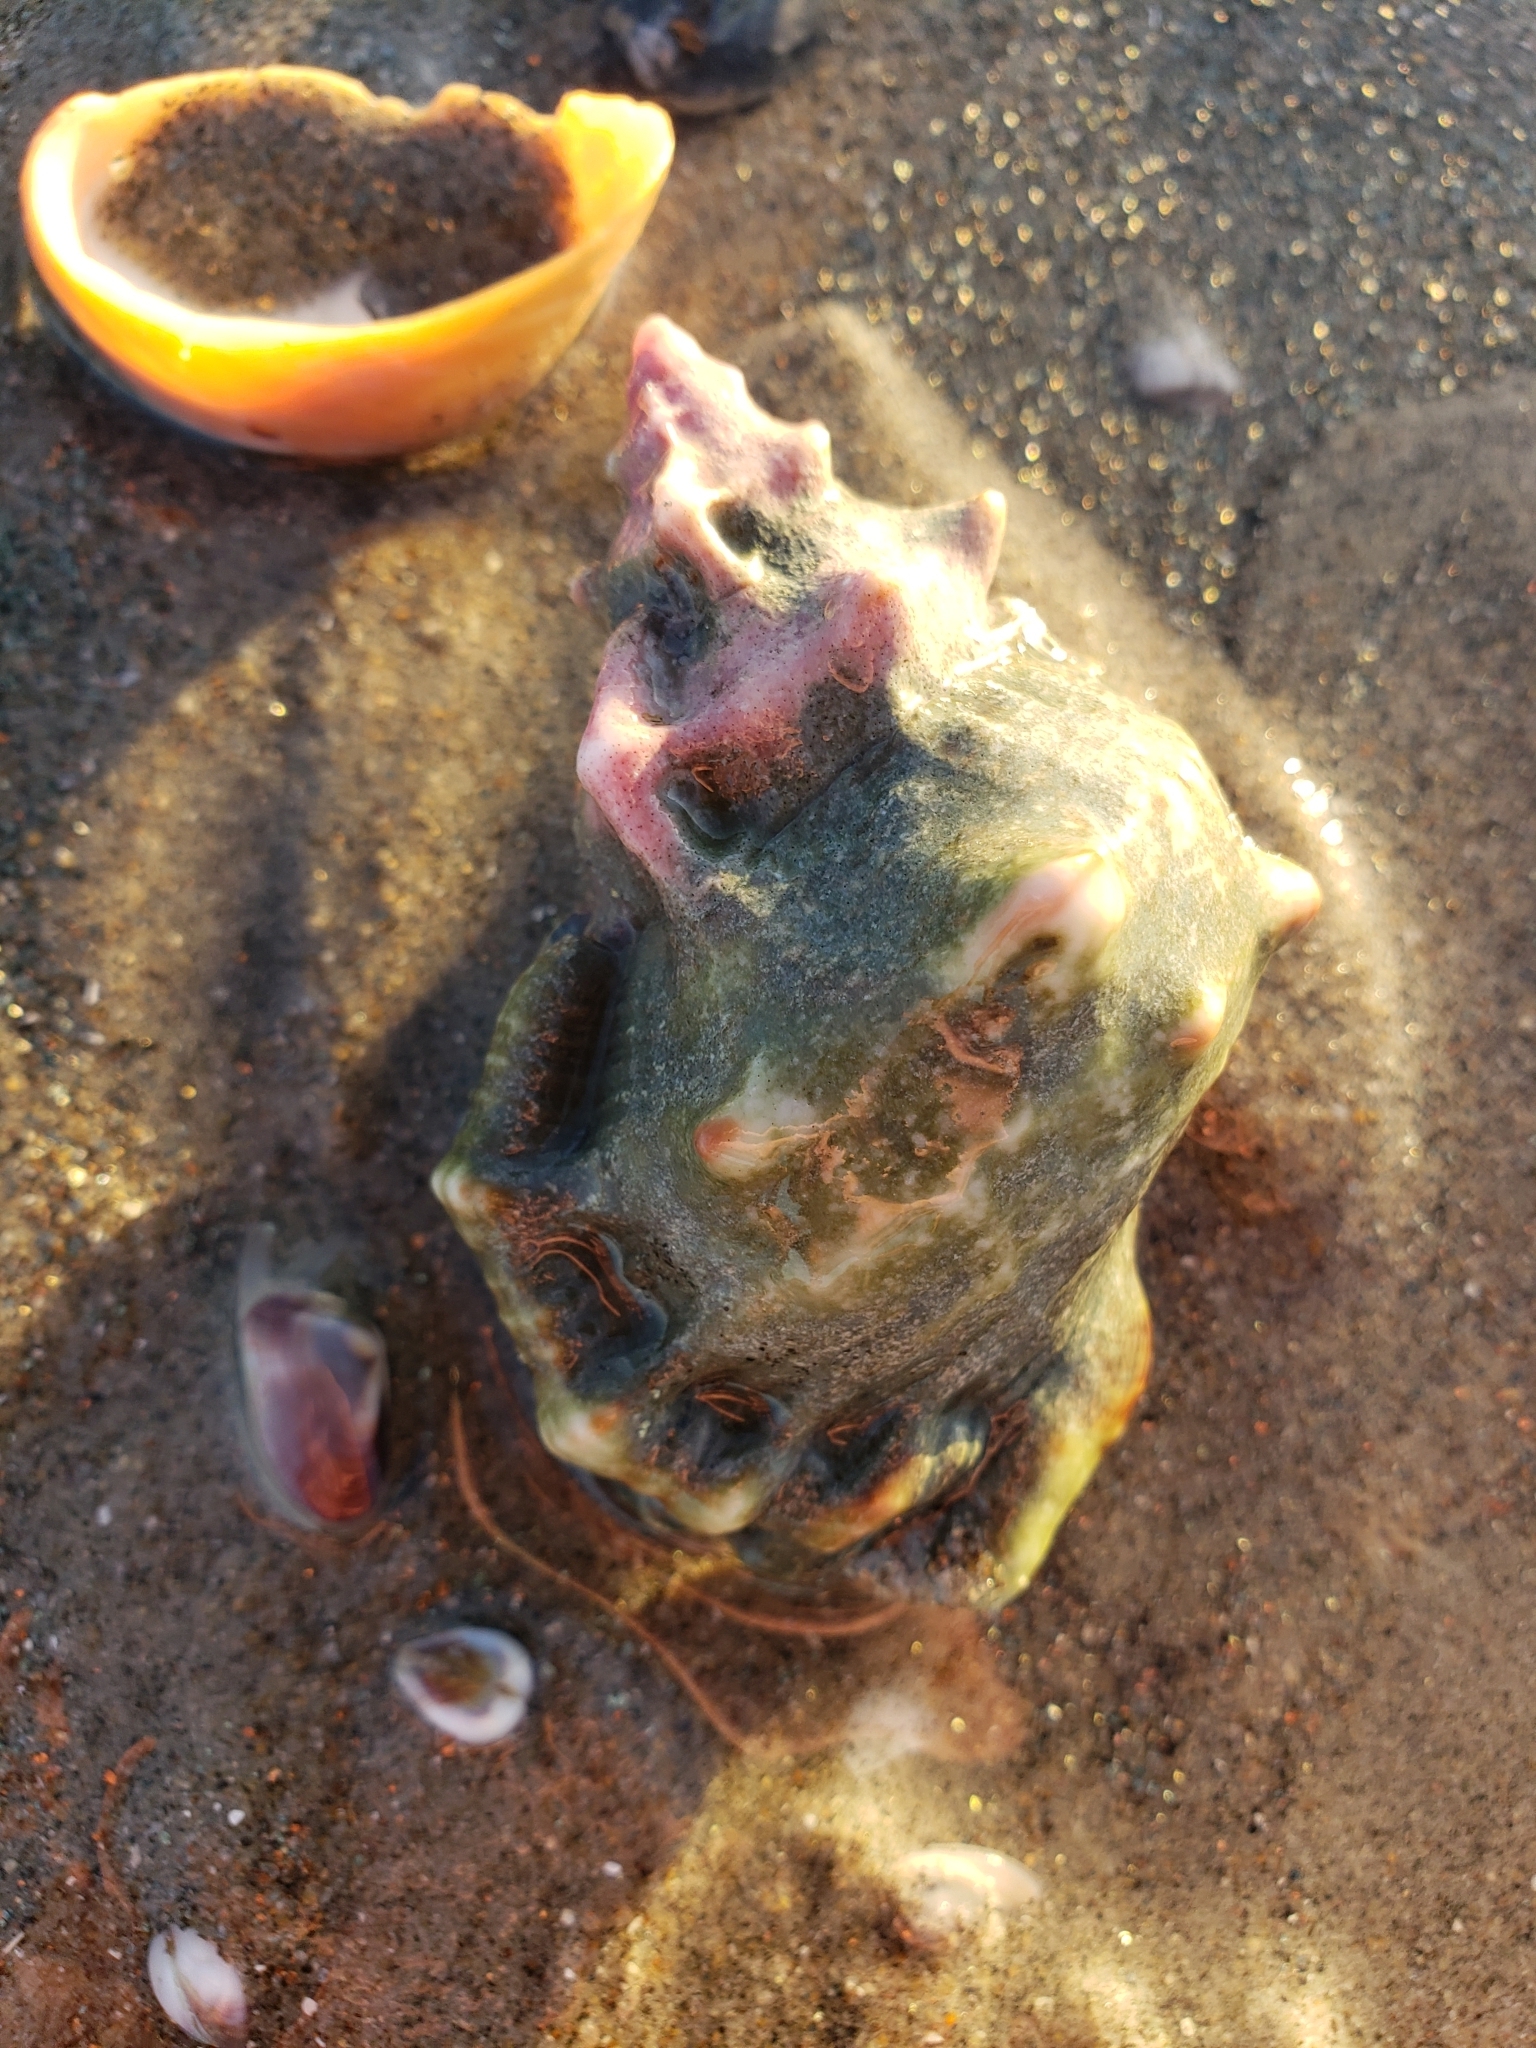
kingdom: Animalia
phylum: Mollusca
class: Gastropoda
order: Littorinimorpha
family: Bursidae
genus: Crossata
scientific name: Crossata californica
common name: California frogsnail
